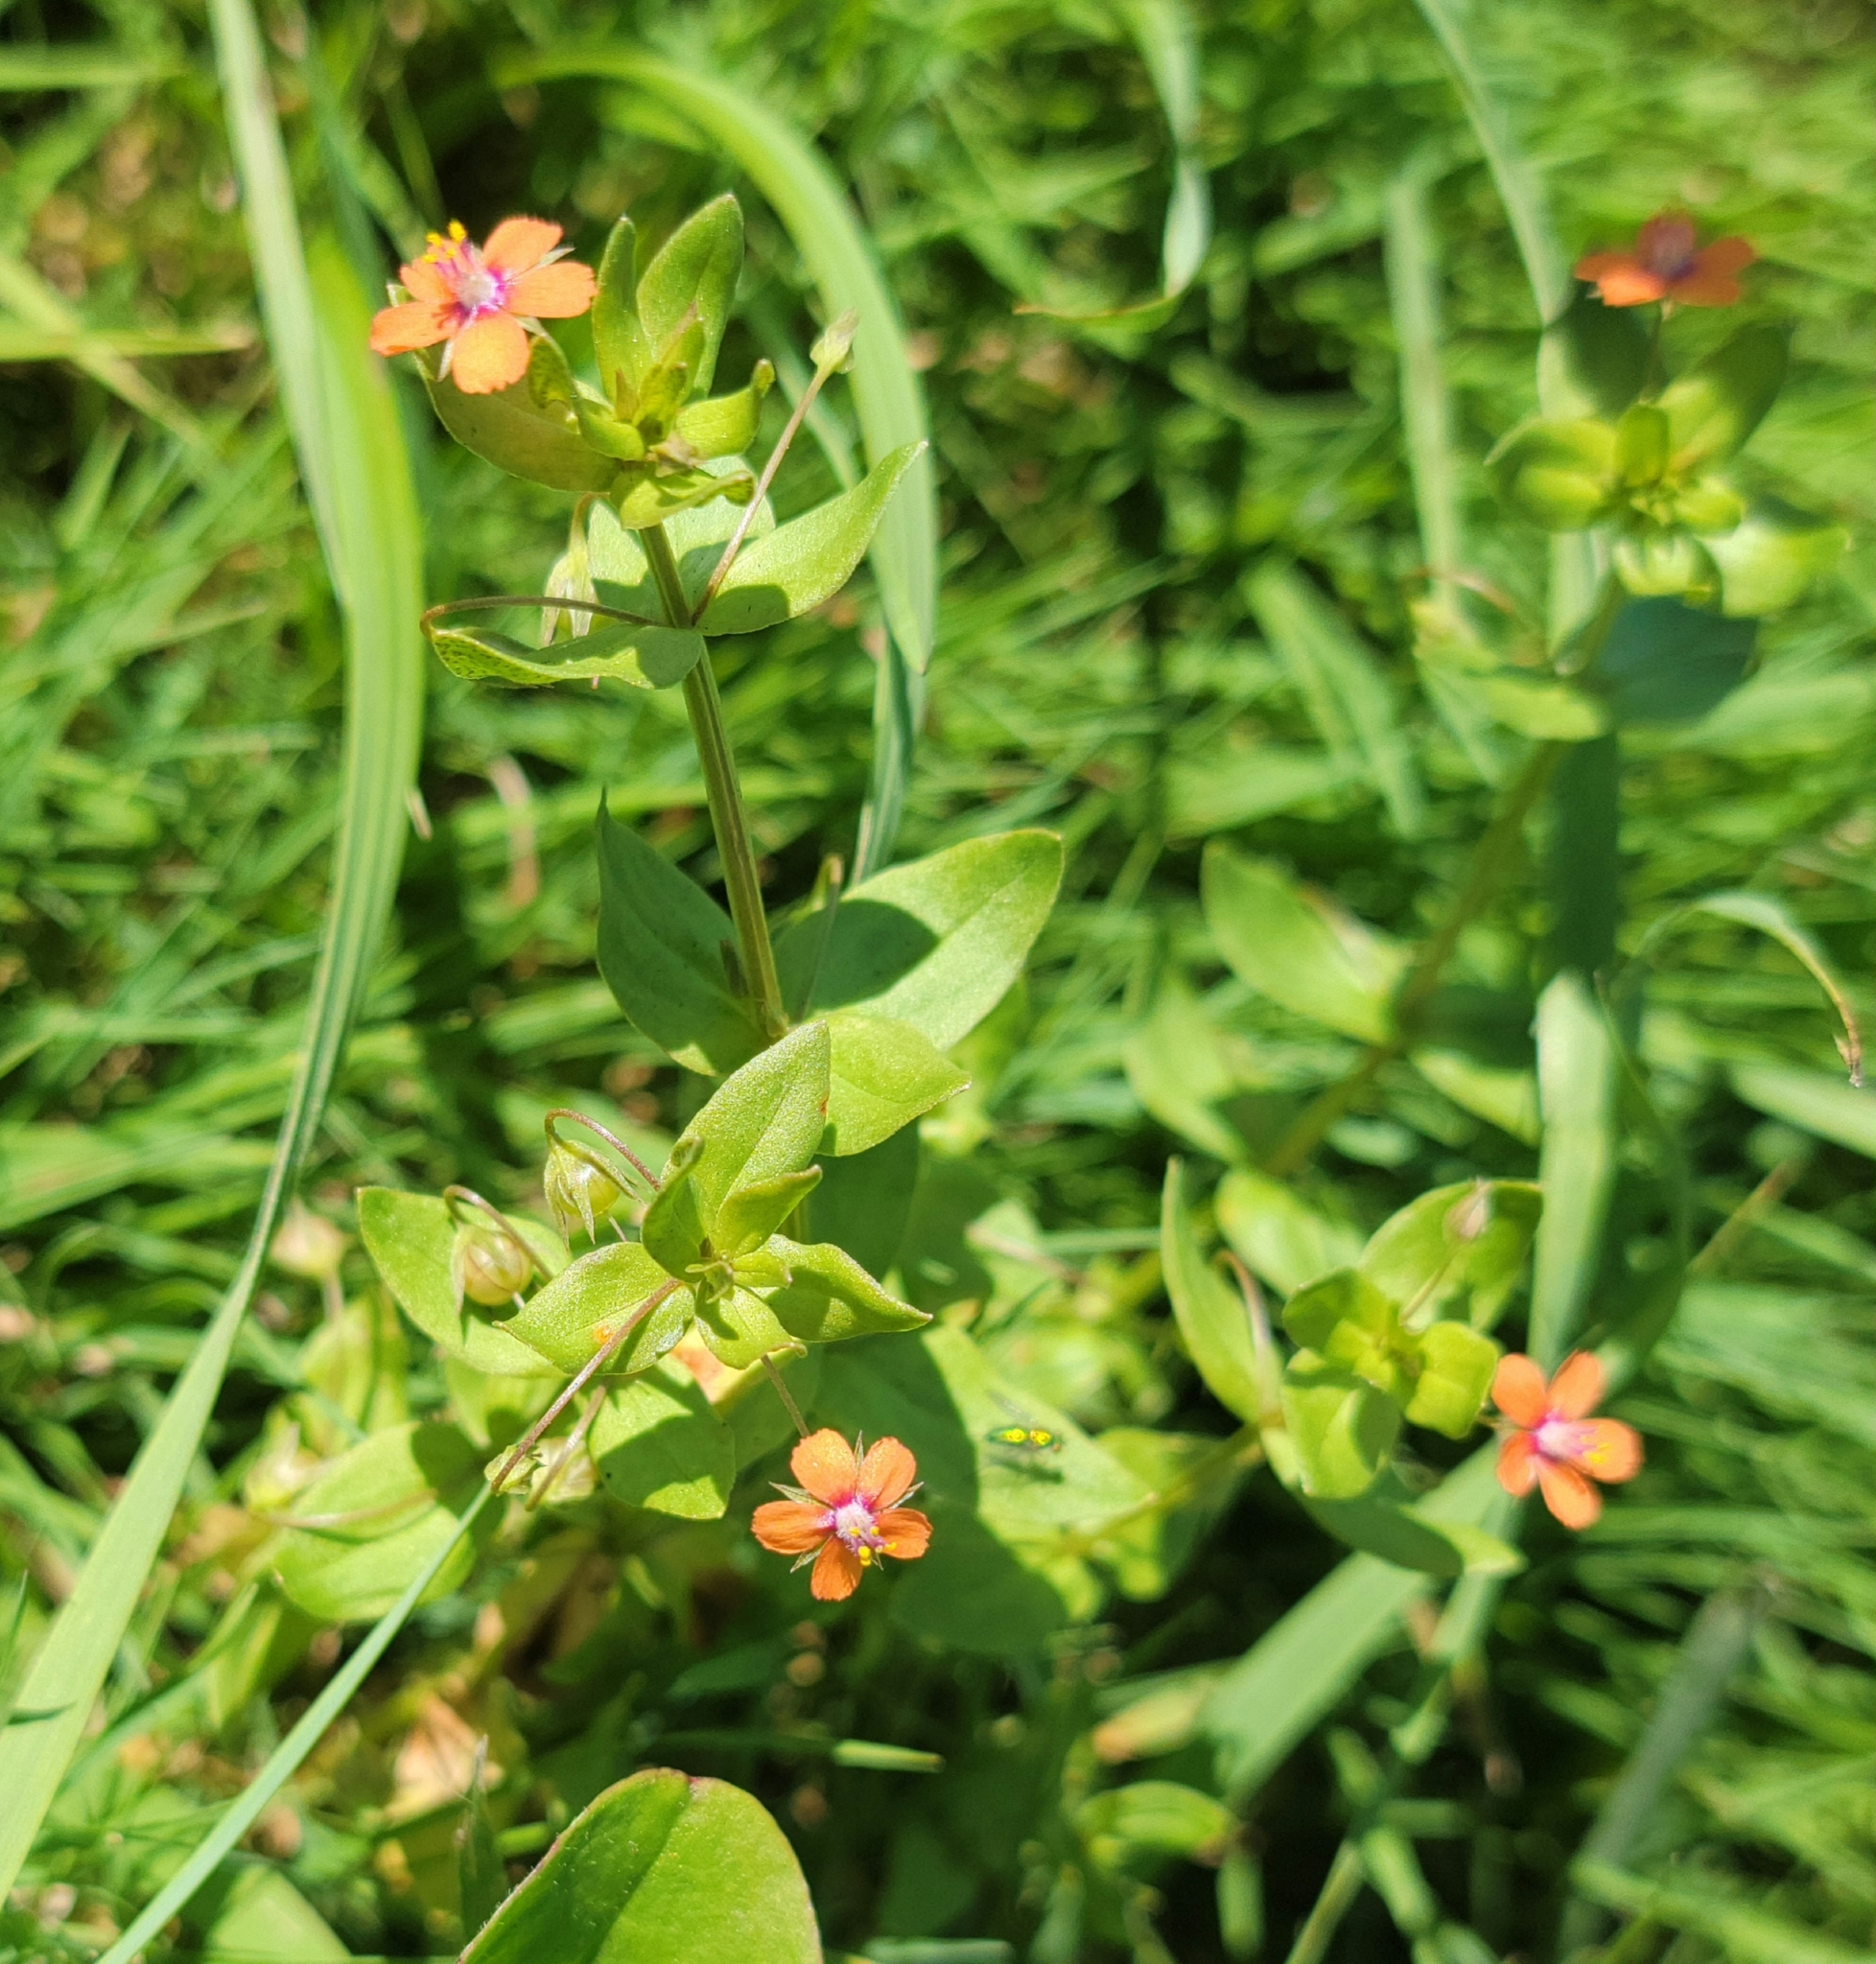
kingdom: Plantae
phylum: Tracheophyta
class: Magnoliopsida
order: Ericales
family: Primulaceae
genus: Lysimachia
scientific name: Lysimachia arvensis
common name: Scarlet pimpernel
